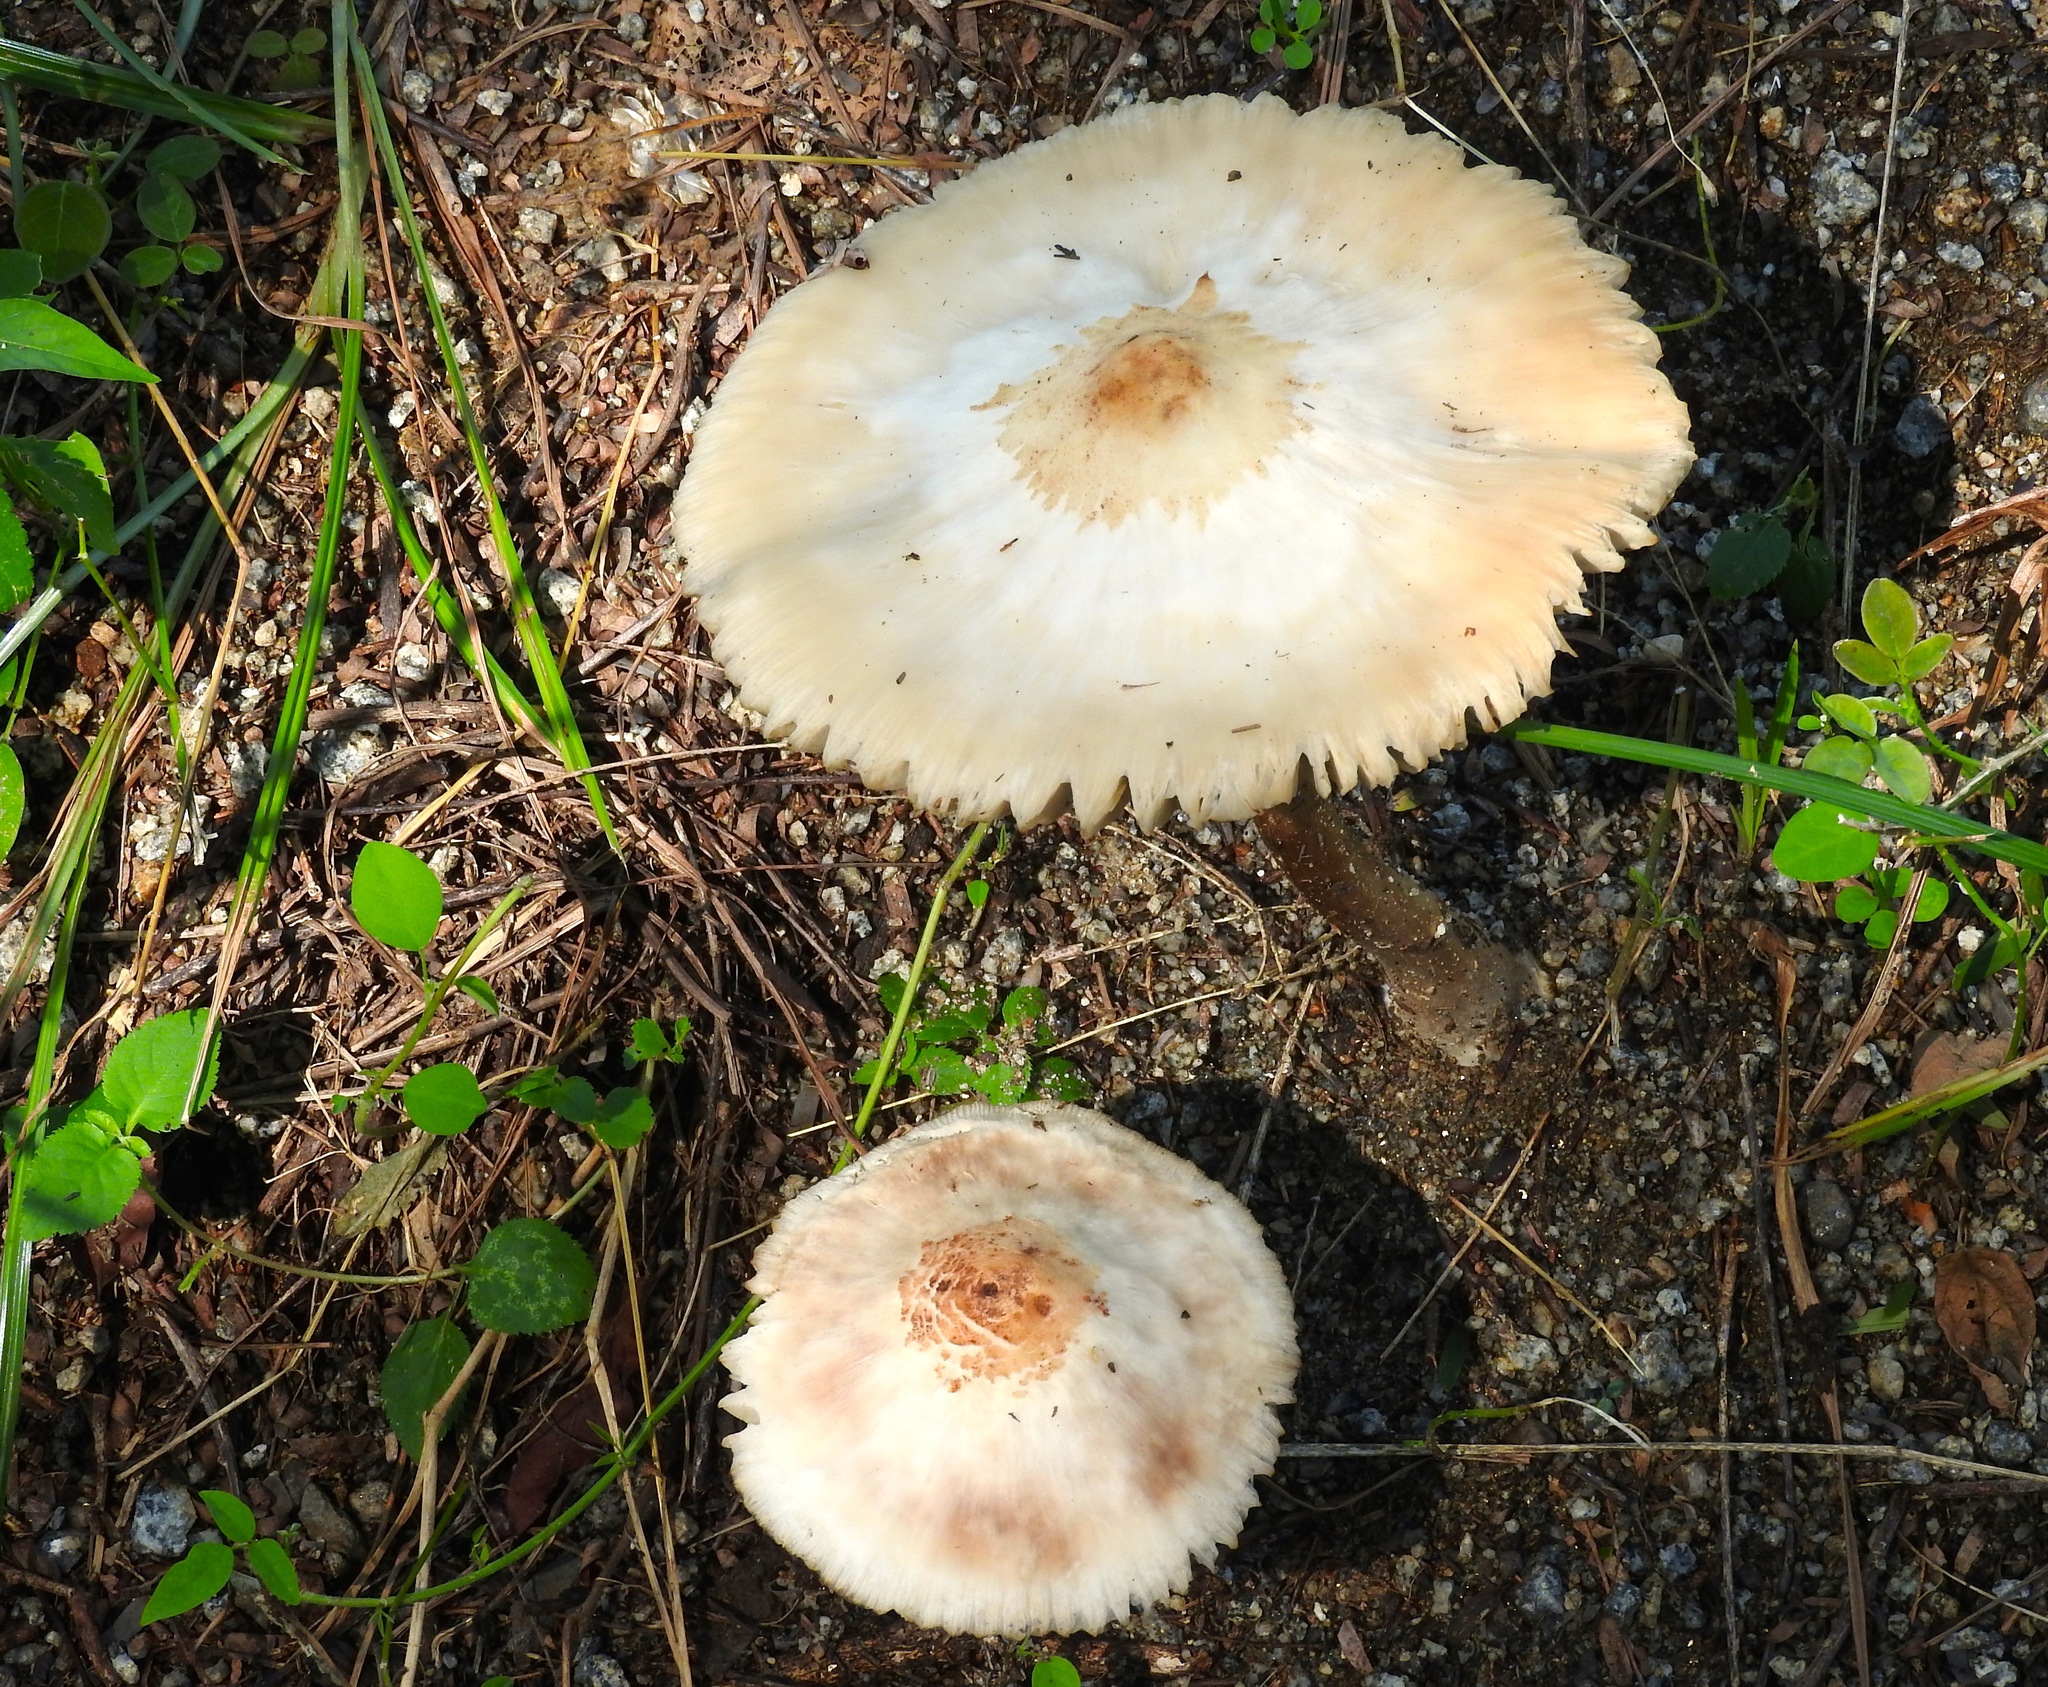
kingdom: Fungi
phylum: Basidiomycota
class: Agaricomycetes
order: Agaricales
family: Agaricaceae
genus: Macrolepiota
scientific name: Macrolepiota
